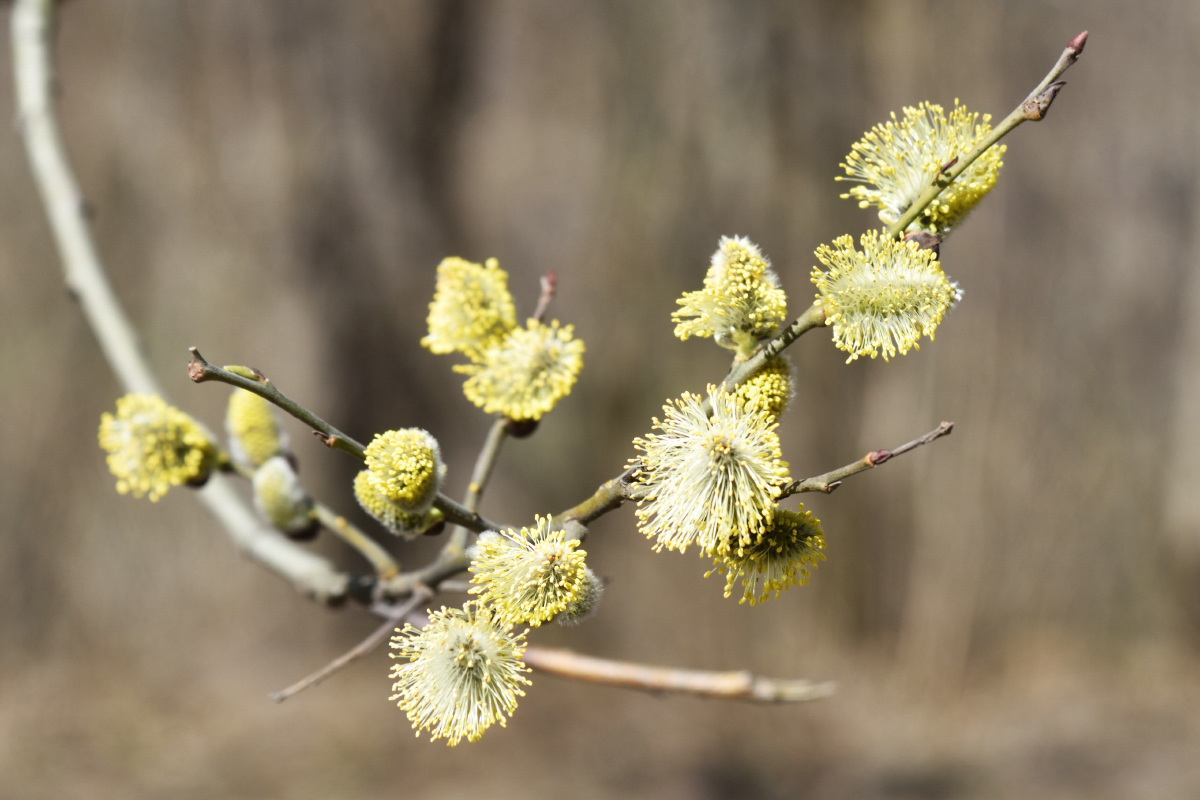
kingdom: Plantae
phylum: Tracheophyta
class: Magnoliopsida
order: Malpighiales
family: Salicaceae
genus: Salix
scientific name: Salix caprea
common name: Goat willow
